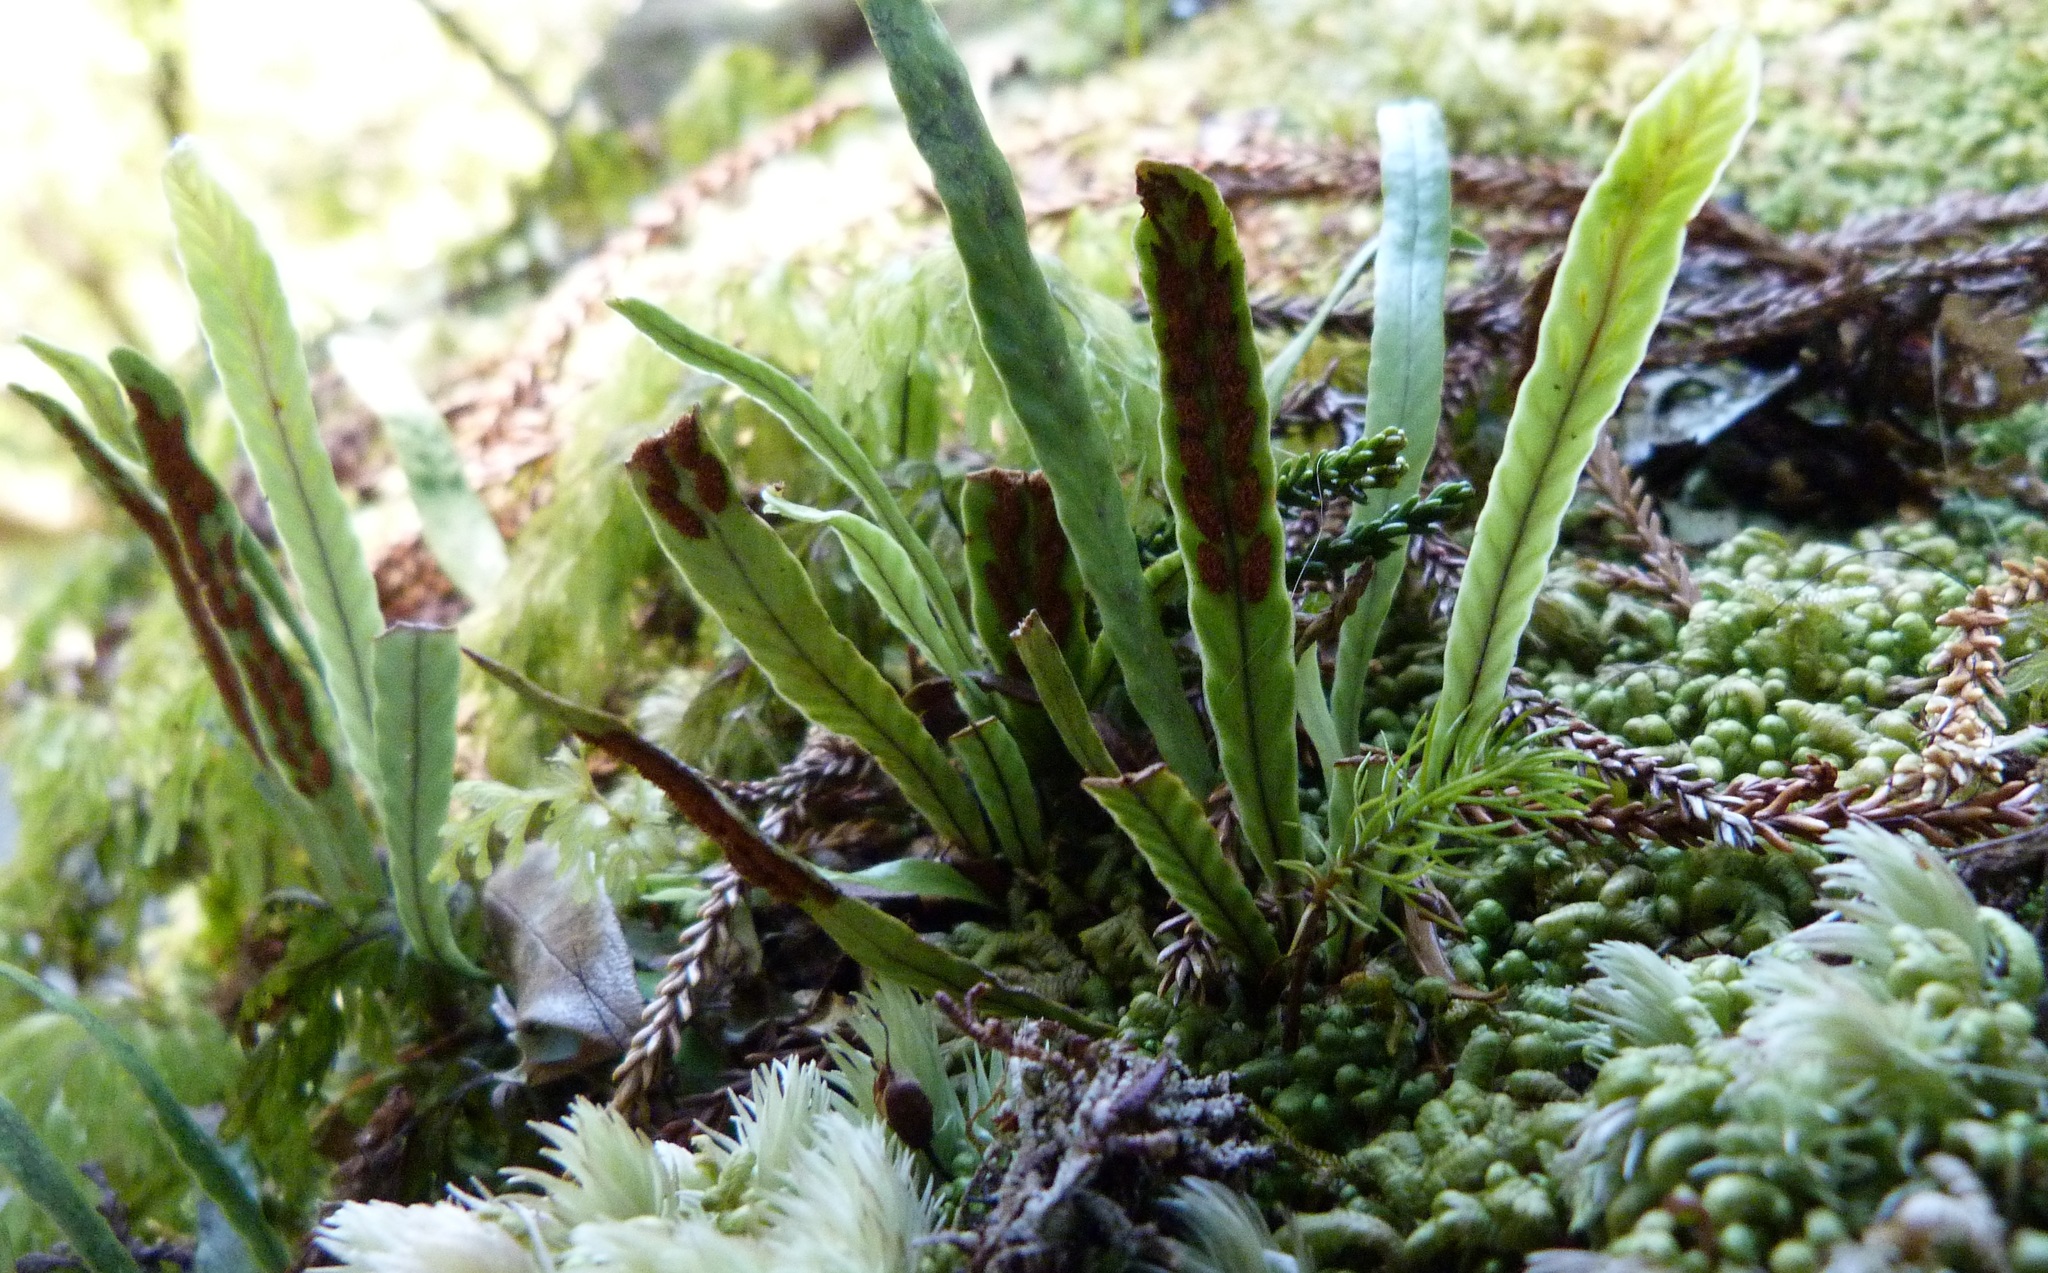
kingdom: Plantae
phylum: Tracheophyta
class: Polypodiopsida
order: Polypodiales
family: Polypodiaceae
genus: Notogrammitis
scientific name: Notogrammitis billardierei
